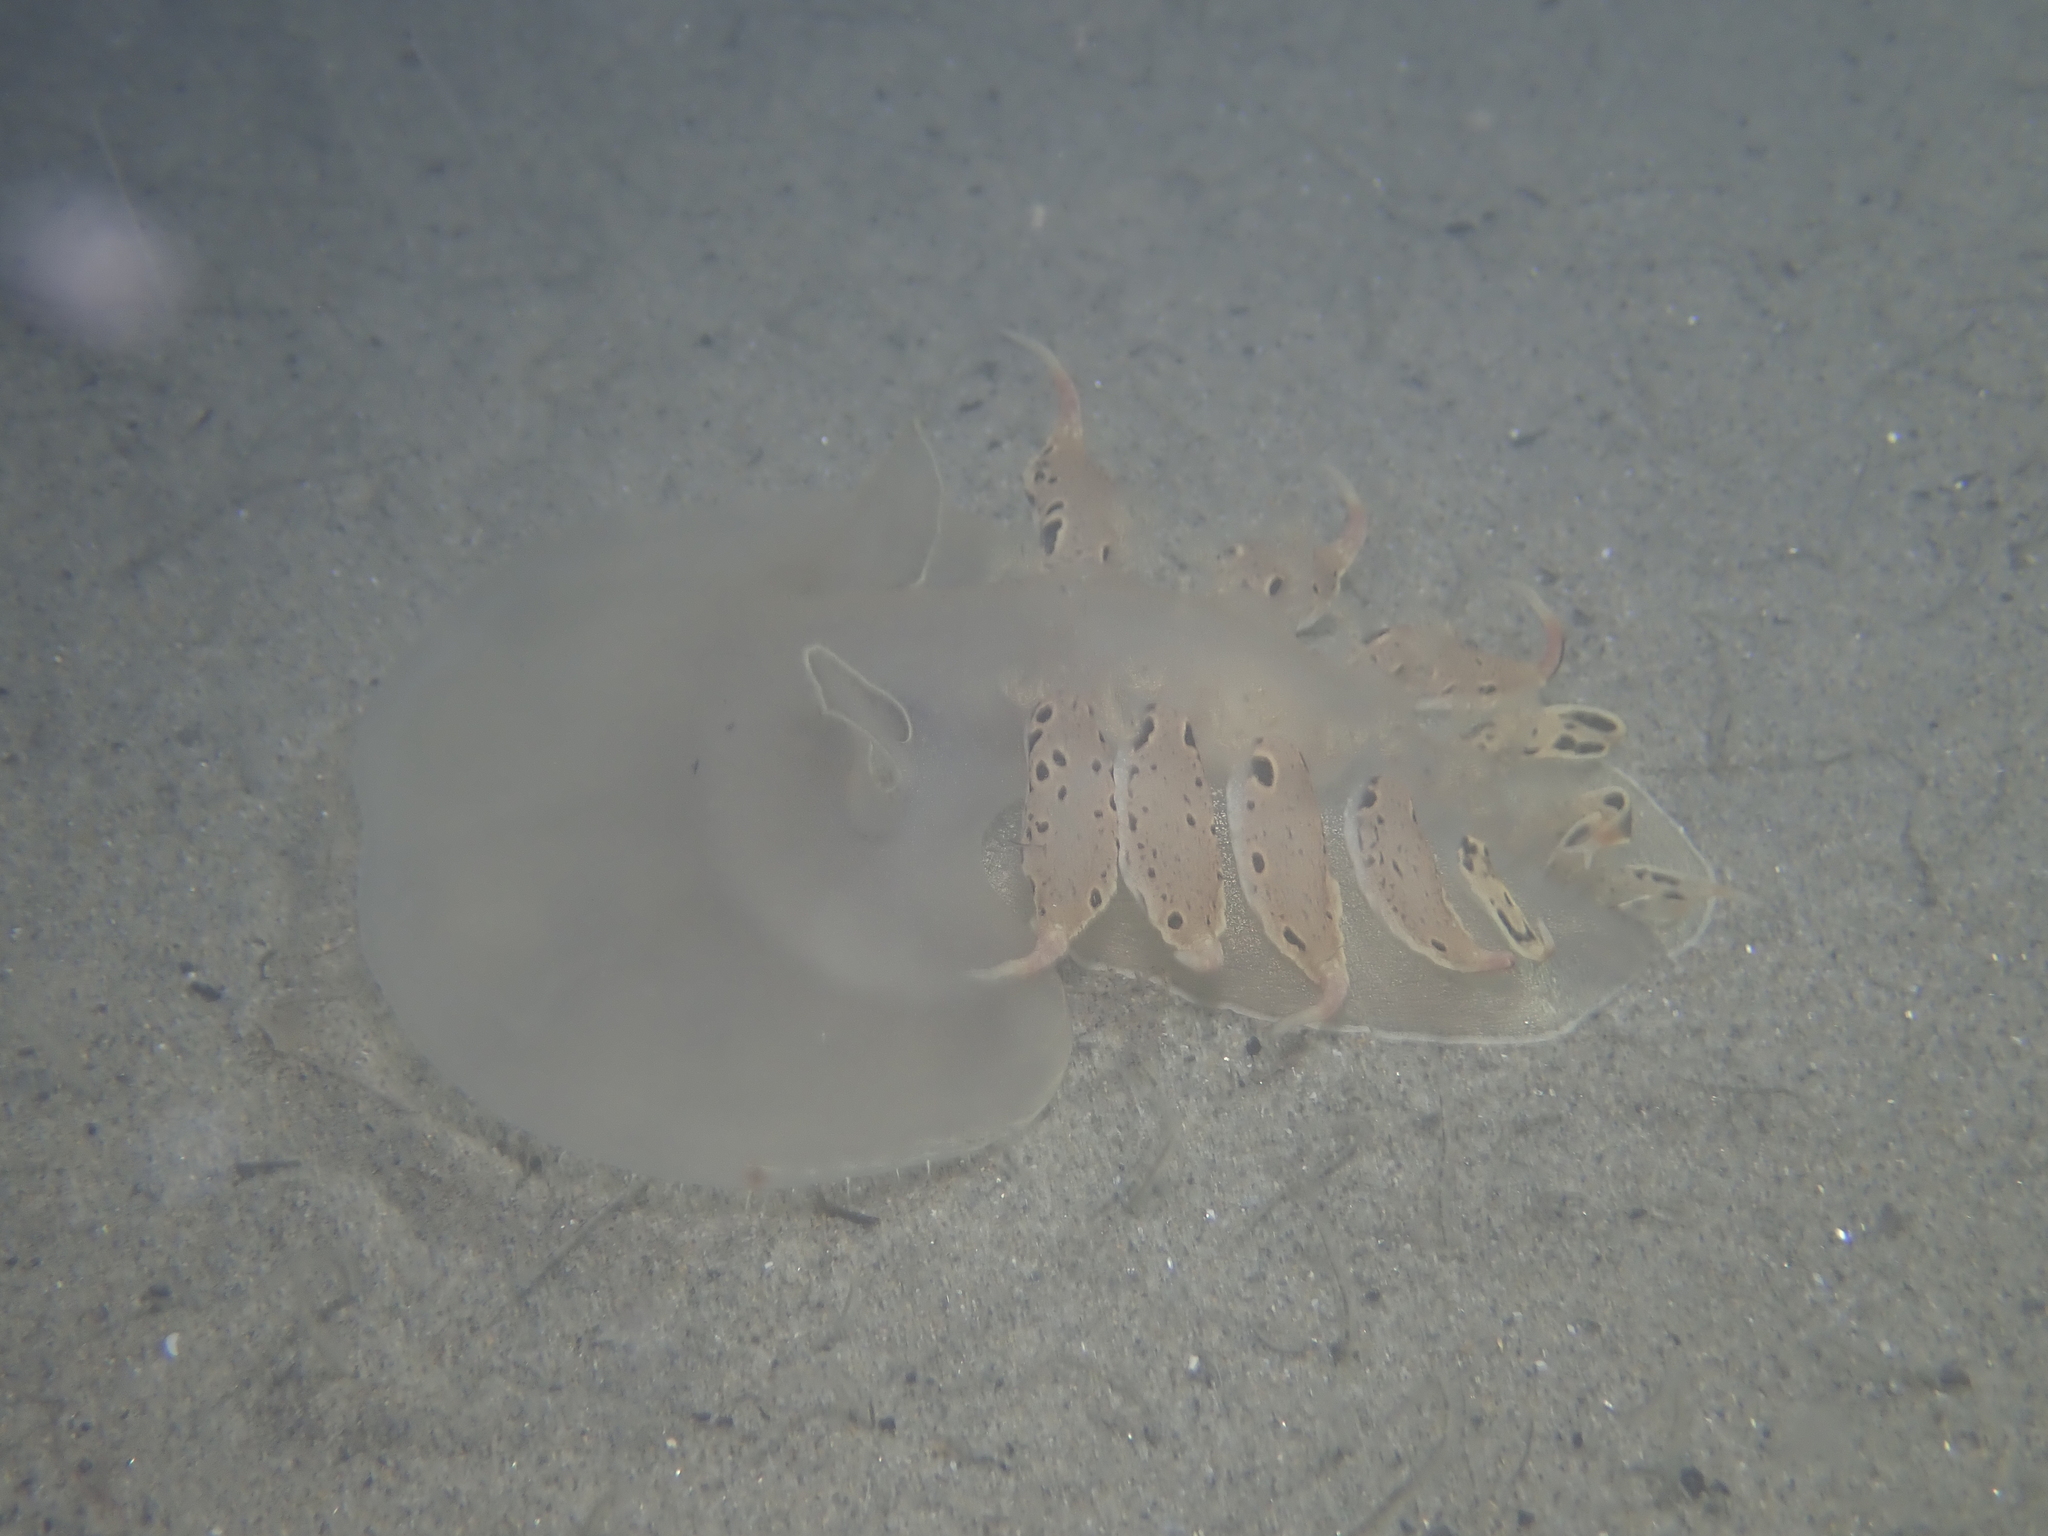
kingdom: Animalia
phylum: Mollusca
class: Gastropoda
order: Nudibranchia
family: Tethydidae
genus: Tethys
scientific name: Tethys fimbria
